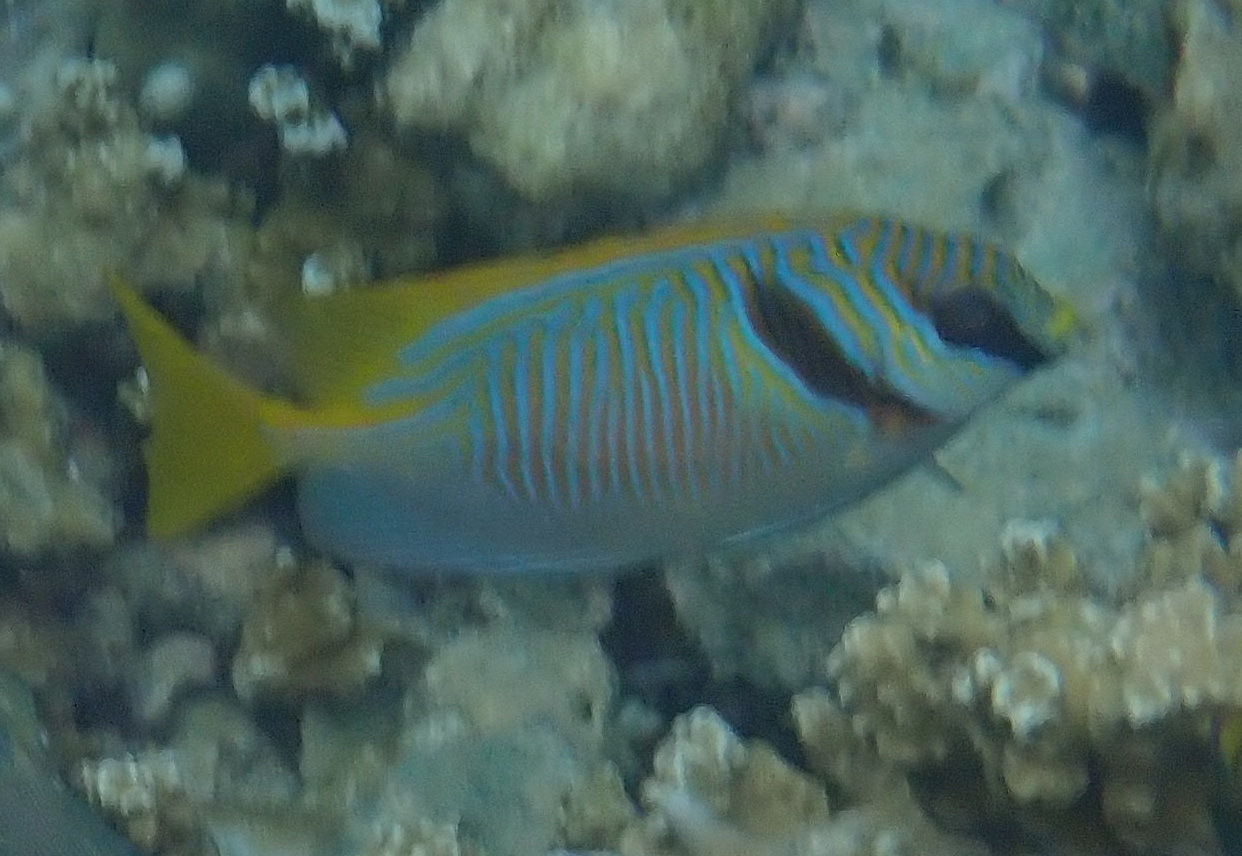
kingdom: Animalia
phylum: Chordata
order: Perciformes
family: Siganidae
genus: Siganus
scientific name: Siganus doliatus
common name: Barred spinefoot
